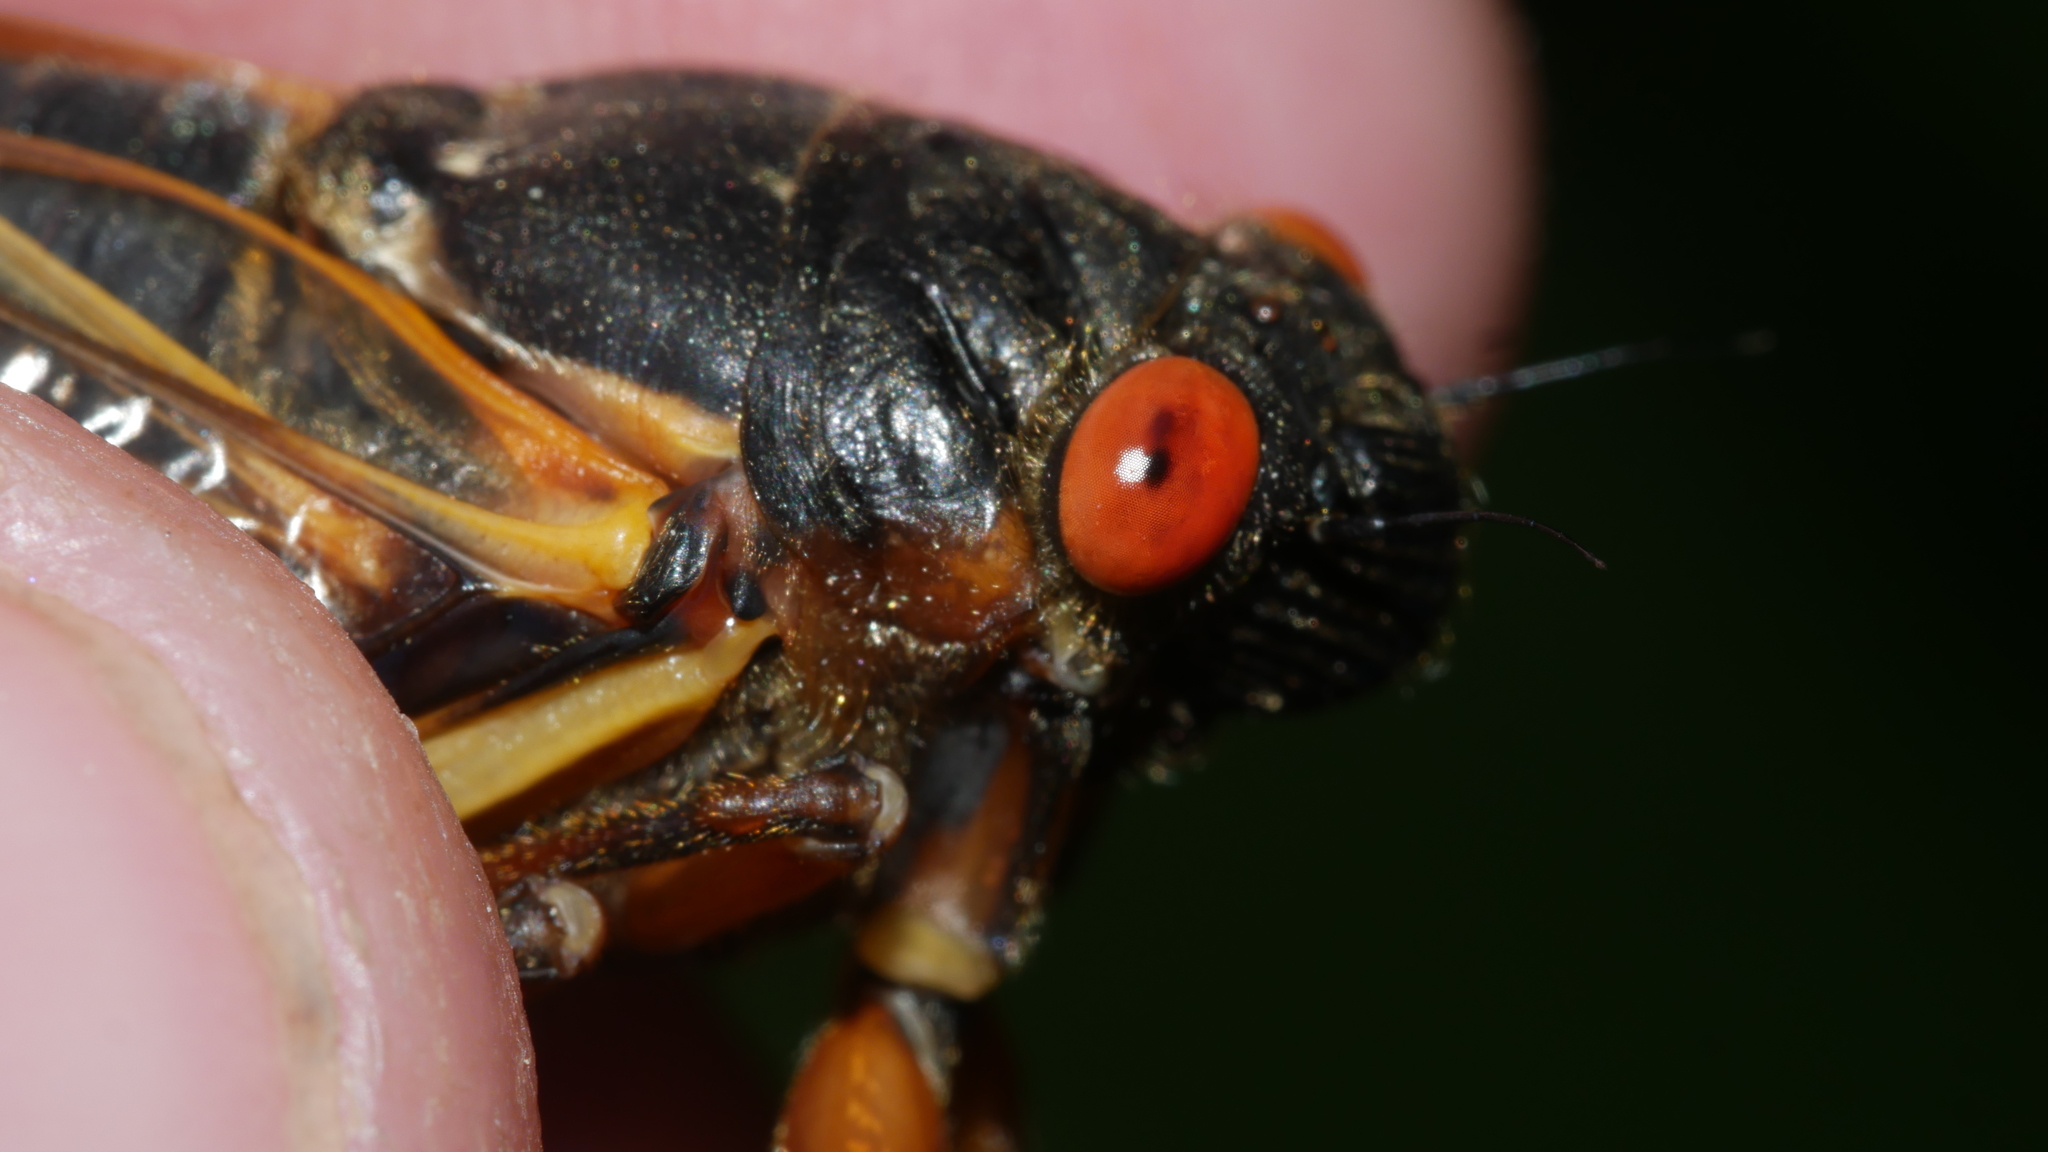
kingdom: Animalia
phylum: Arthropoda
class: Insecta
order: Hemiptera
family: Cicadidae
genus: Magicicada
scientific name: Magicicada septendecim
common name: Periodical cicada
